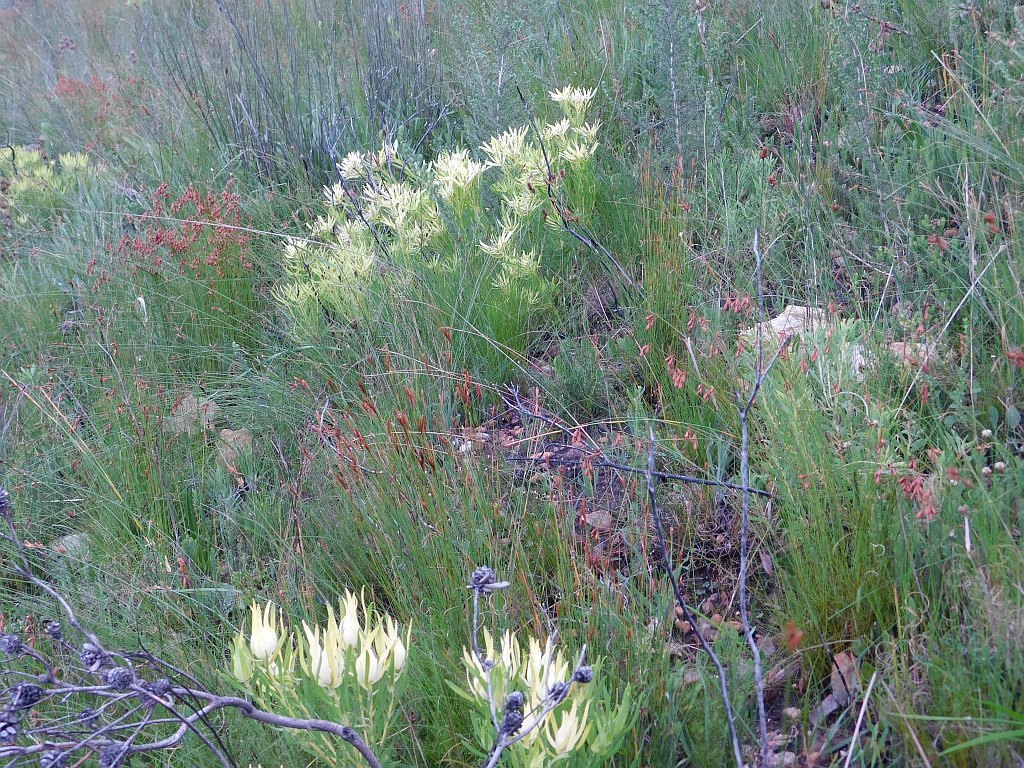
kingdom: Plantae
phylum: Tracheophyta
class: Magnoliopsida
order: Proteales
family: Proteaceae
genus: Leucadendron
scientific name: Leucadendron salignum
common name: Common sunshine conebush
